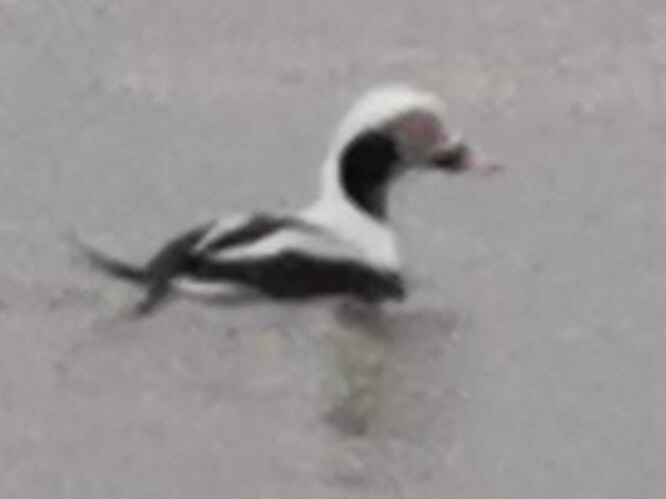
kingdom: Animalia
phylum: Chordata
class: Aves
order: Anseriformes
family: Anatidae
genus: Clangula
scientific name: Clangula hyemalis
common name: Long-tailed duck
